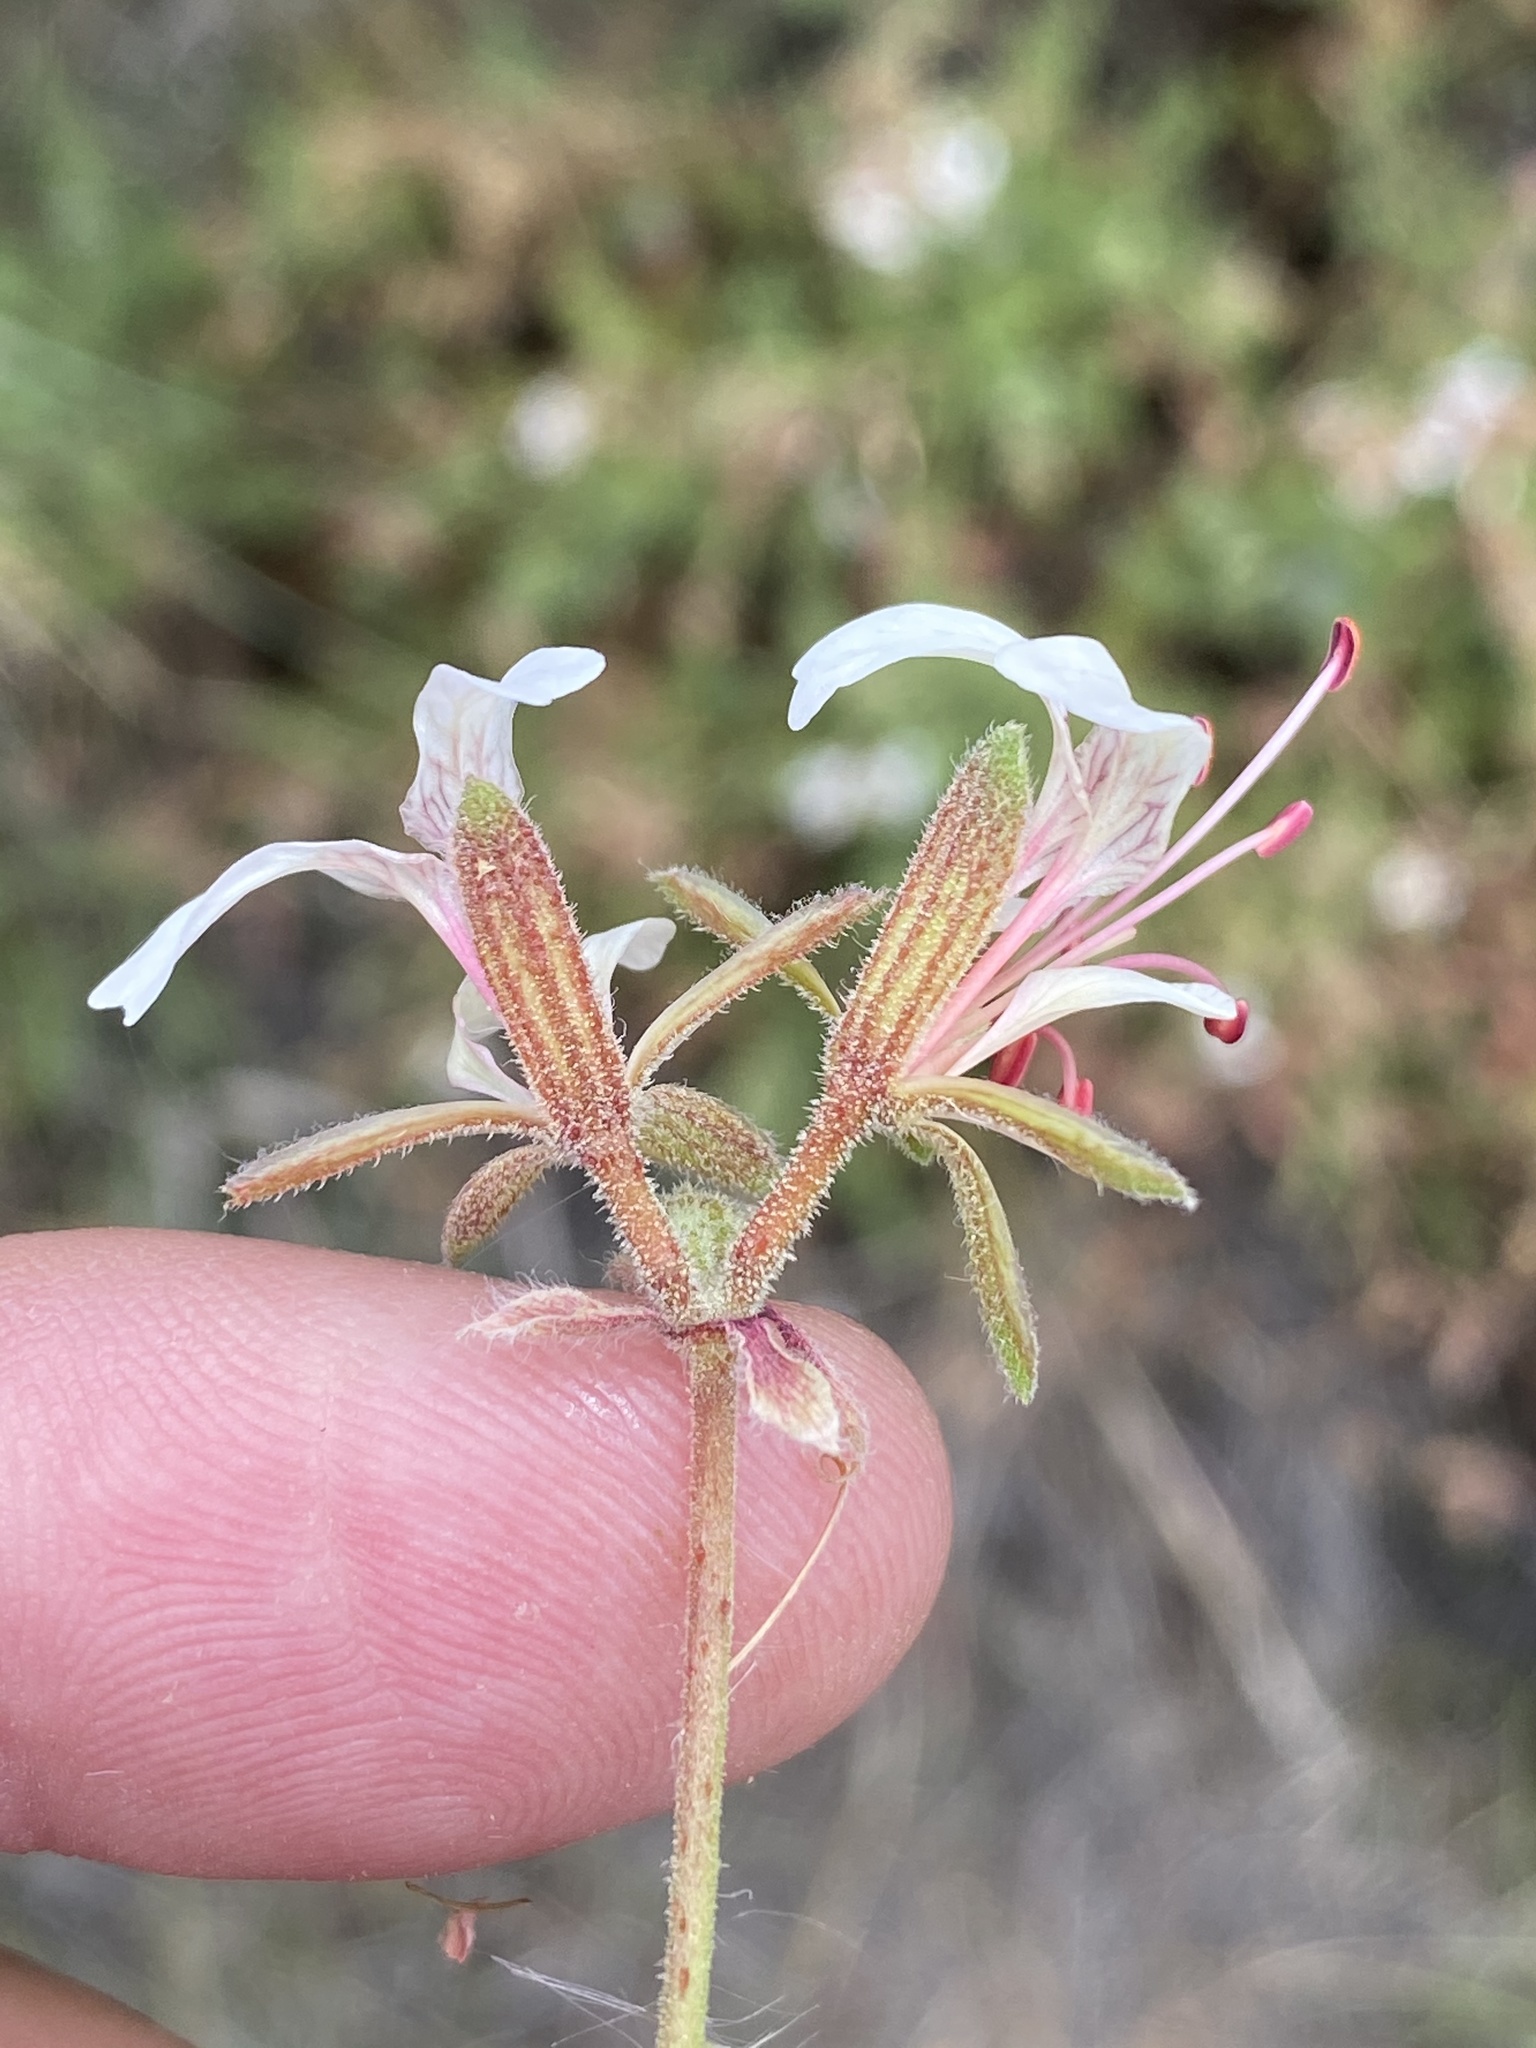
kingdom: Plantae
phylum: Tracheophyta
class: Magnoliopsida
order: Geraniales
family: Geraniaceae
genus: Pelargonium
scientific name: Pelargonium tragacanthoides
